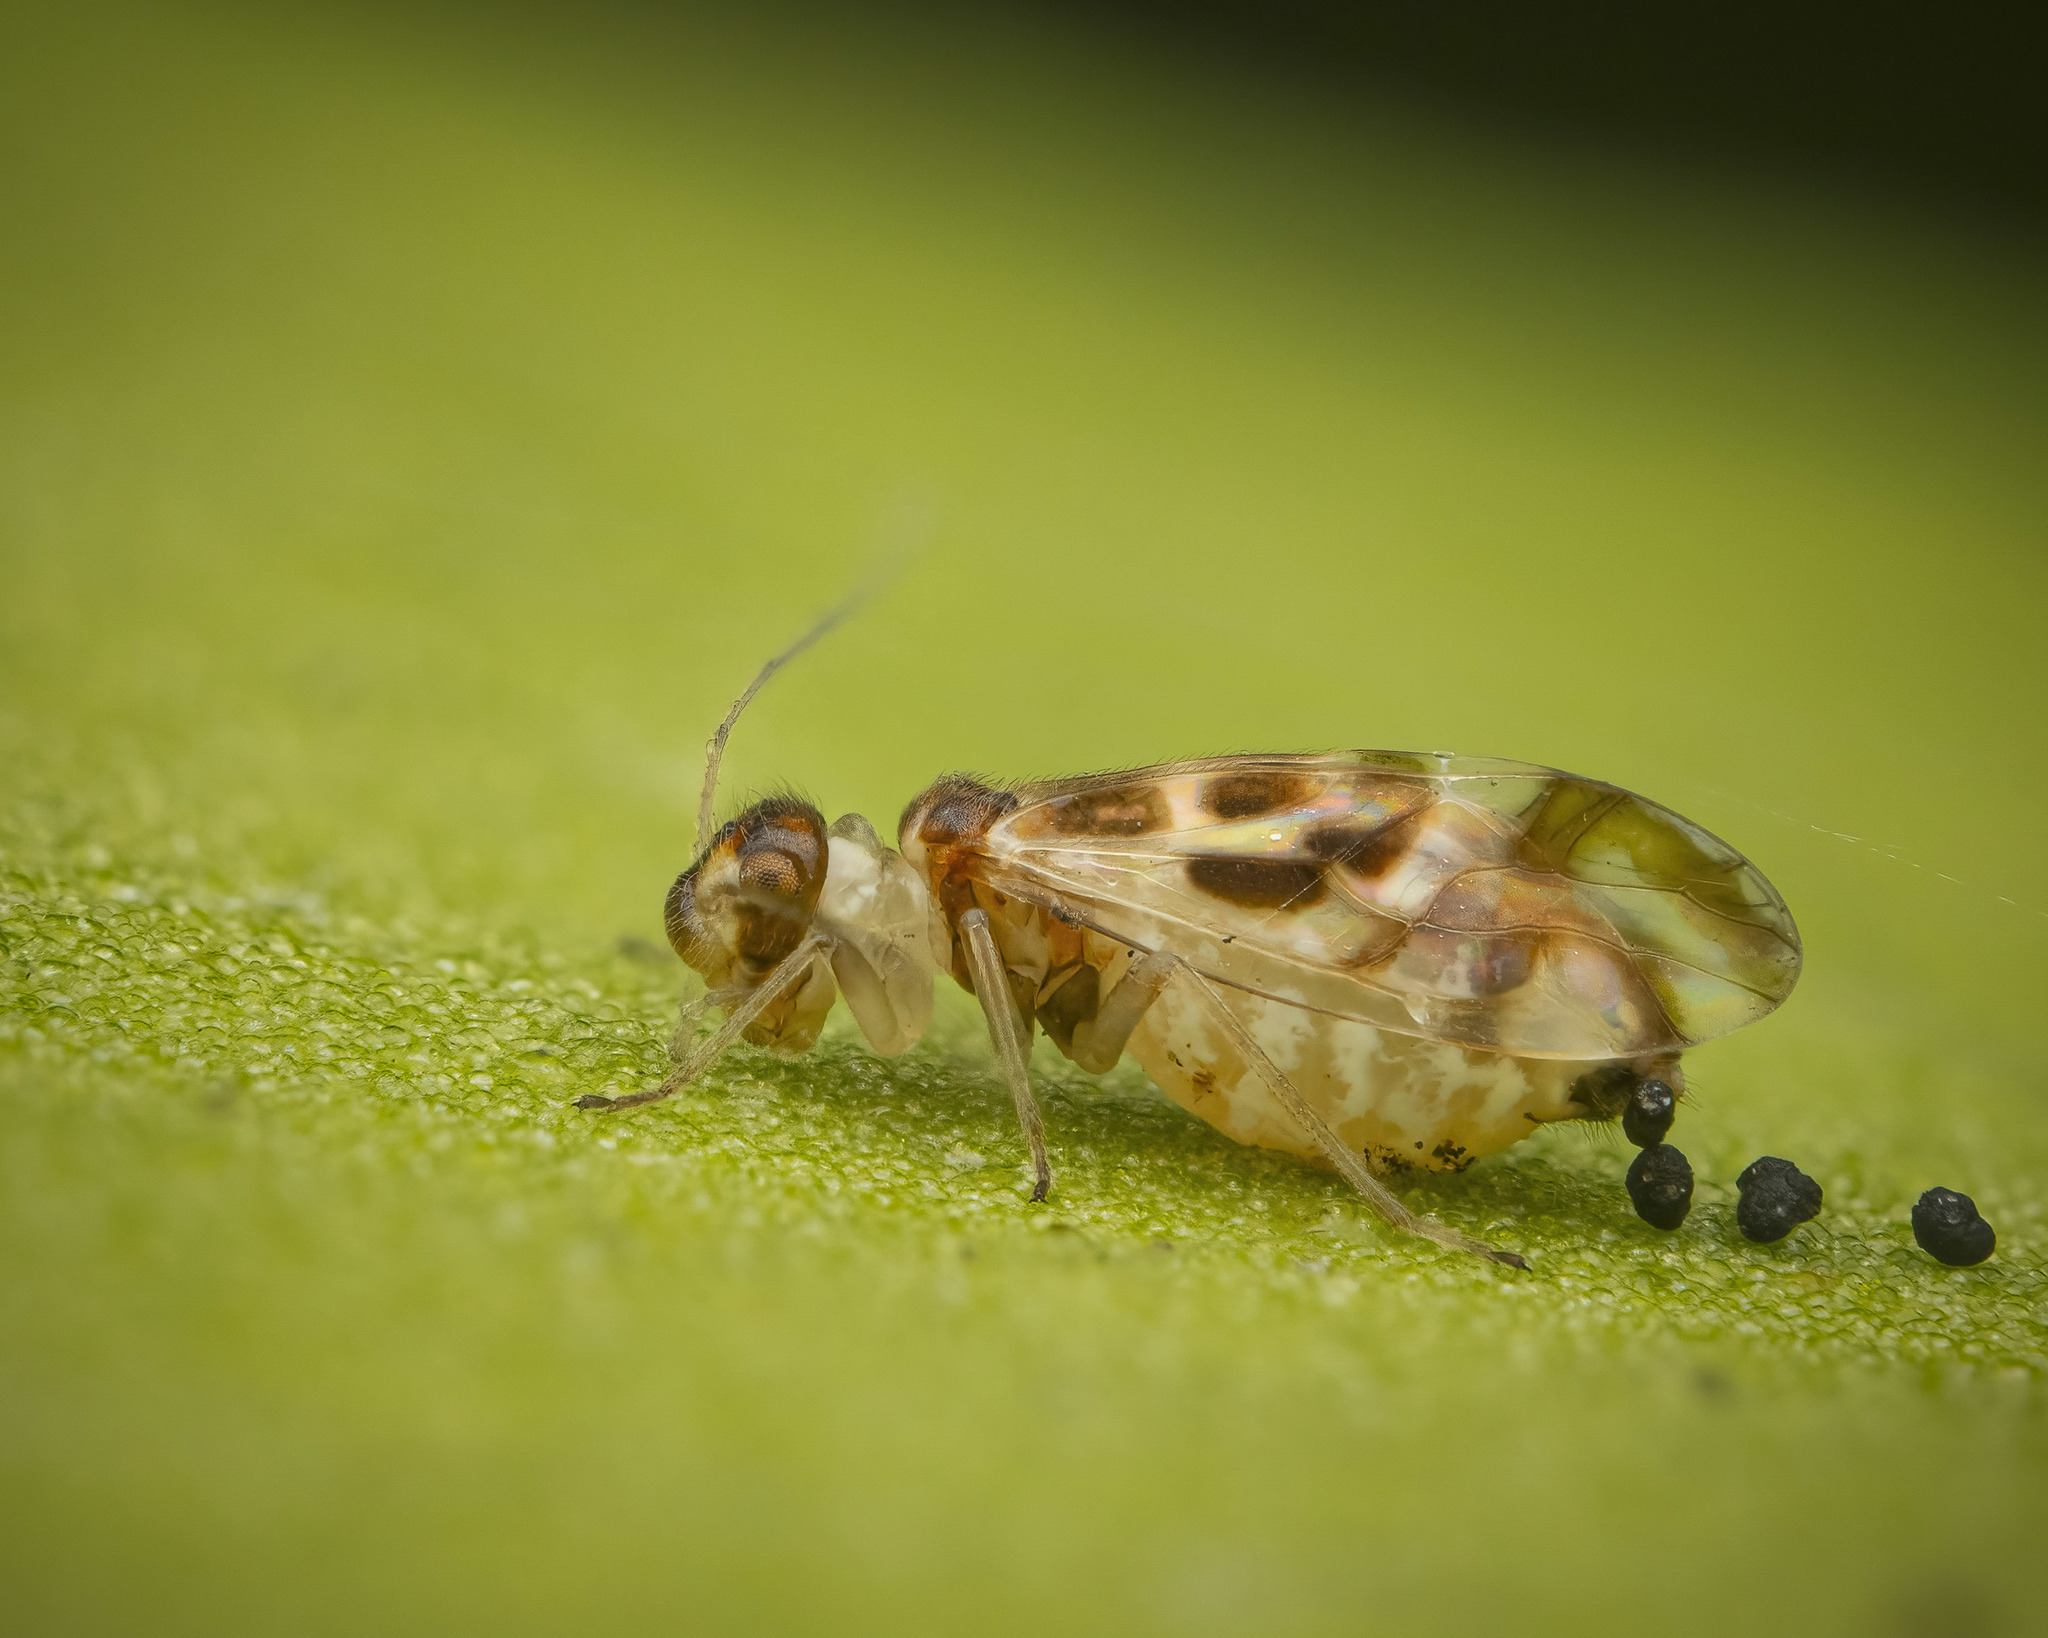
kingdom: Animalia
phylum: Arthropoda
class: Insecta
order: Psocodea
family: Stenopsocidae
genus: Graphopsocus
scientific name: Graphopsocus cruciatus
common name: Lizard bark louse
